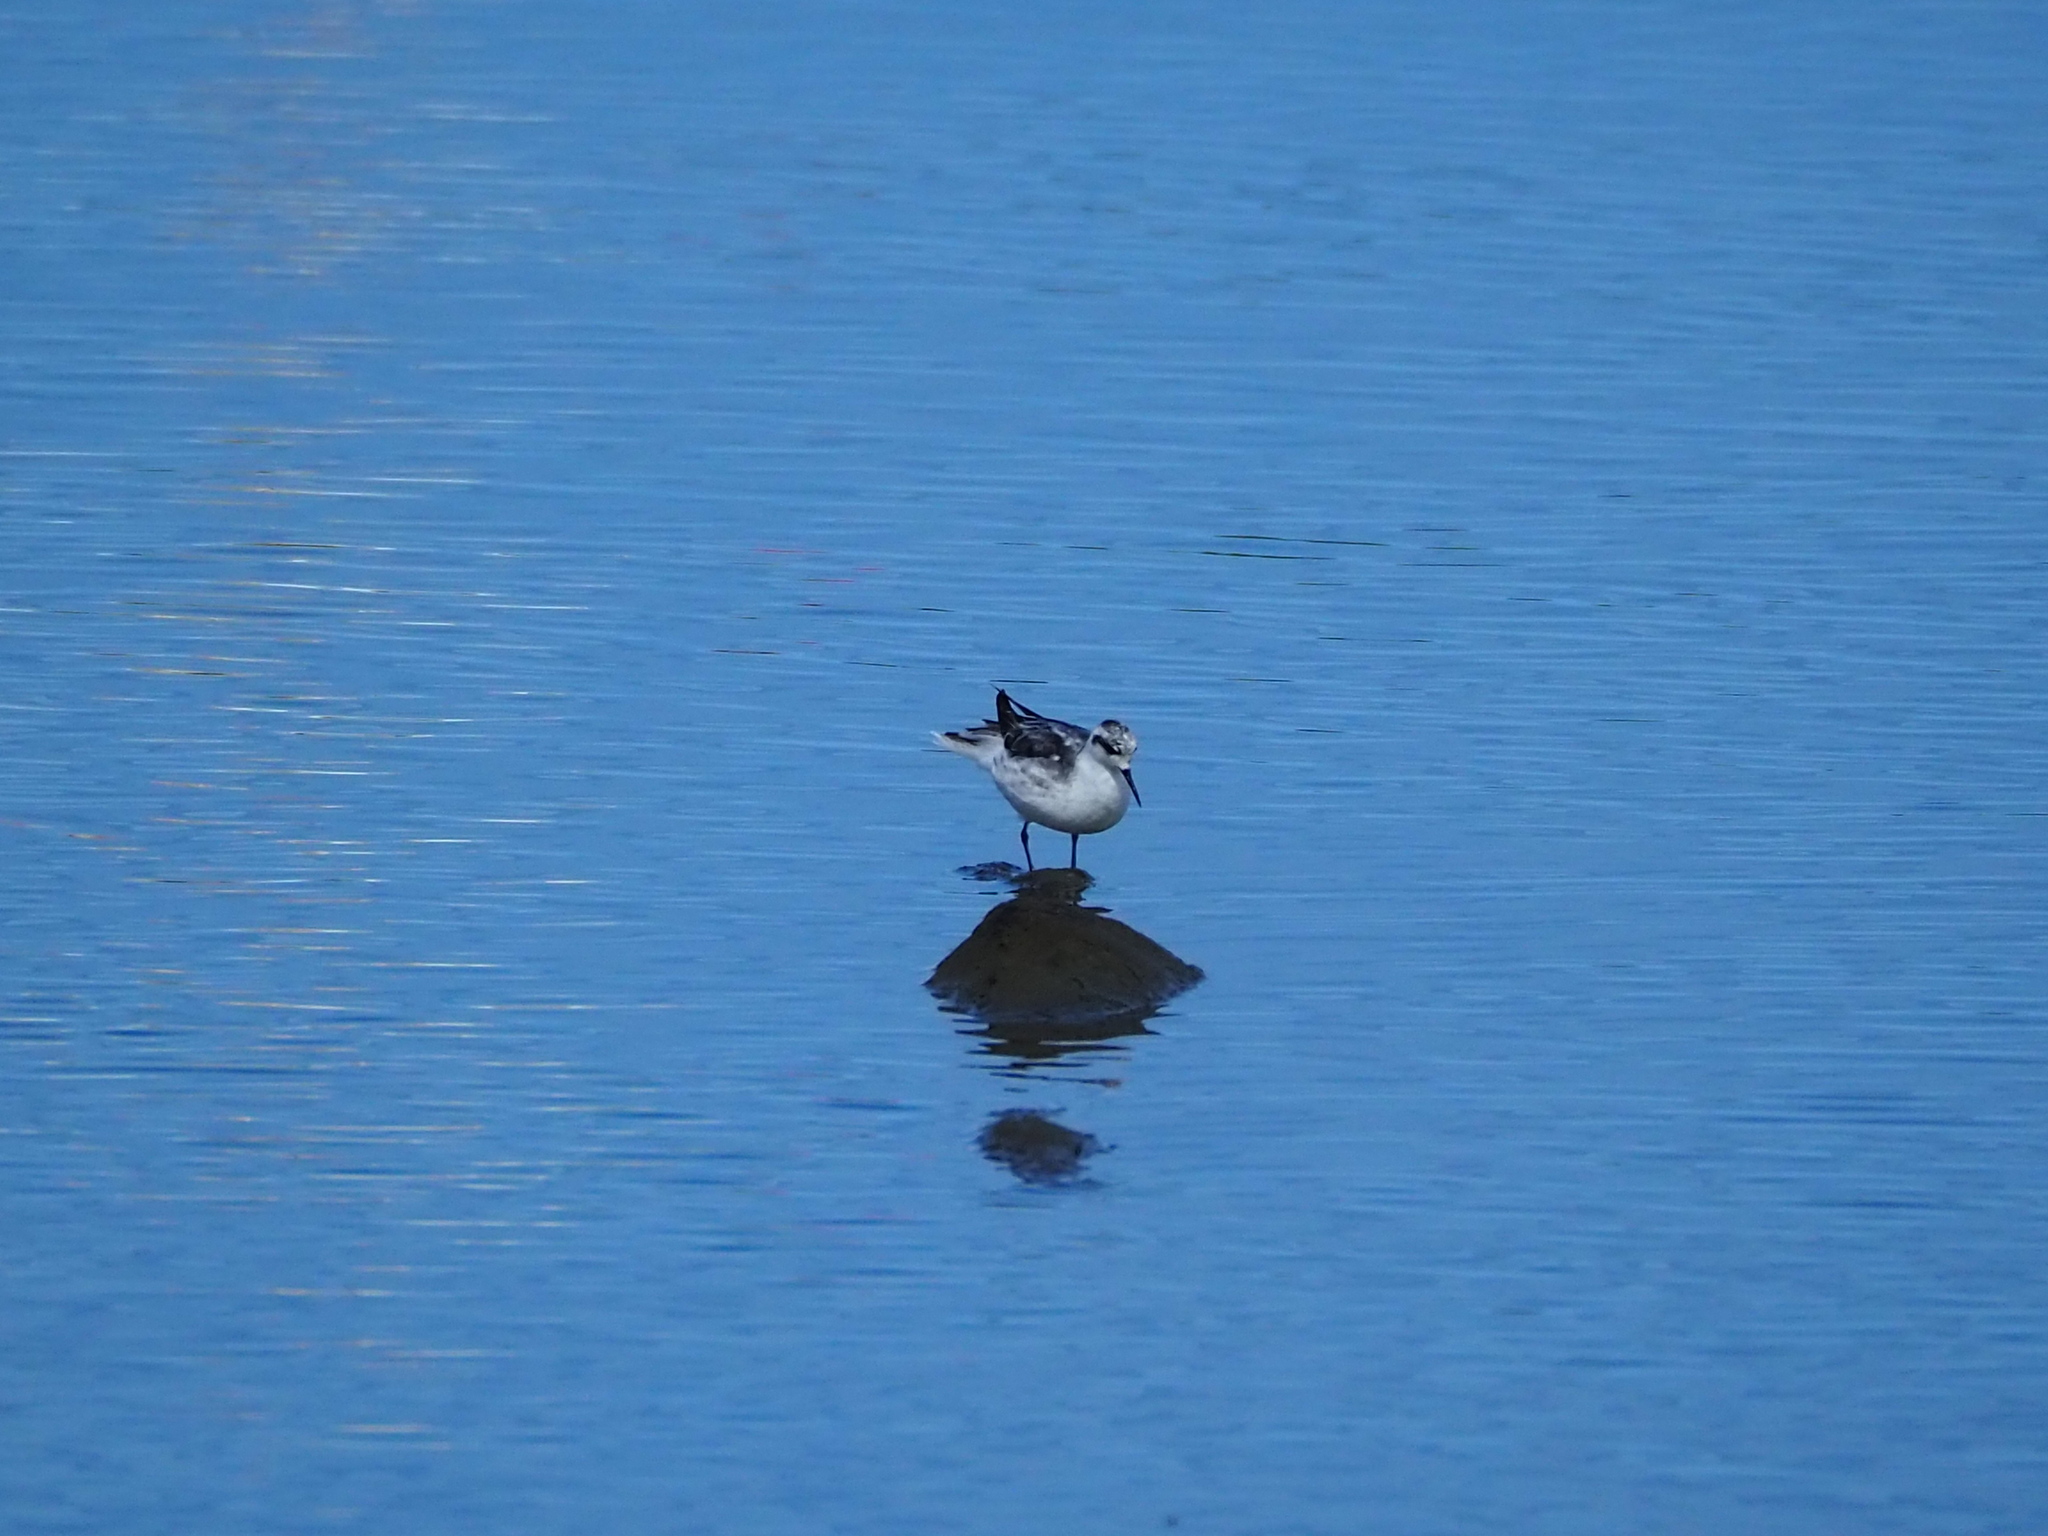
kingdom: Animalia
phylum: Chordata
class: Aves
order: Charadriiformes
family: Scolopacidae
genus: Phalaropus
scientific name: Phalaropus lobatus
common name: Red-necked phalarope
